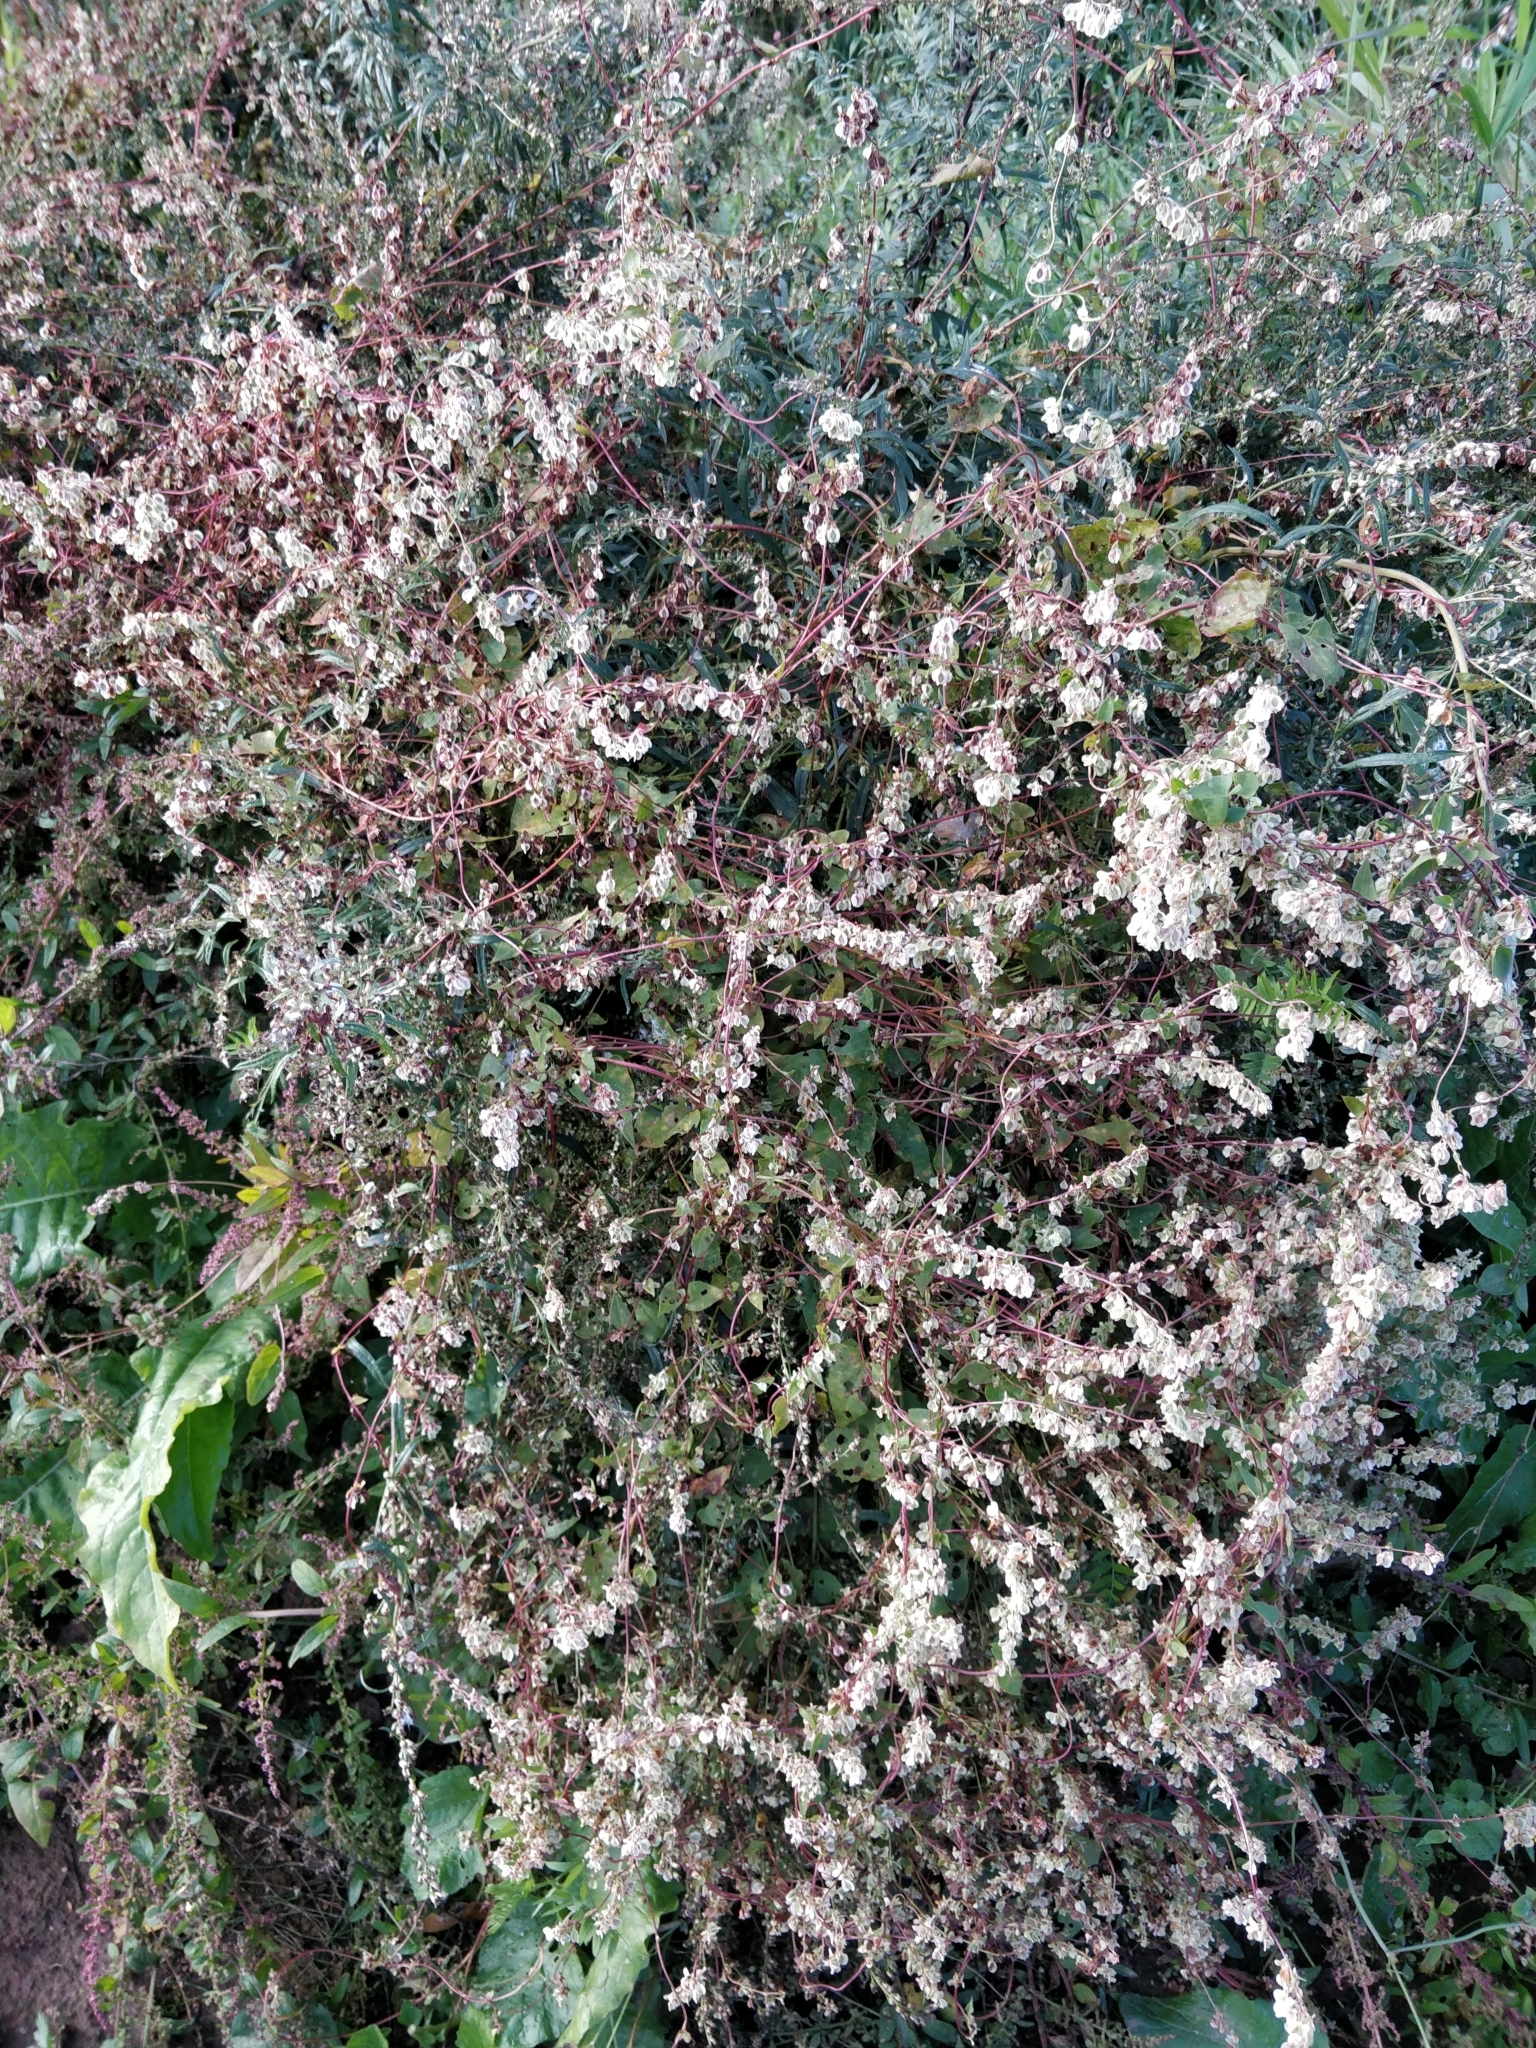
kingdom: Plantae
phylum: Tracheophyta
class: Magnoliopsida
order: Caryophyllales
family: Polygonaceae
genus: Fallopia
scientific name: Fallopia dumetorum
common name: Copse-bindweed
